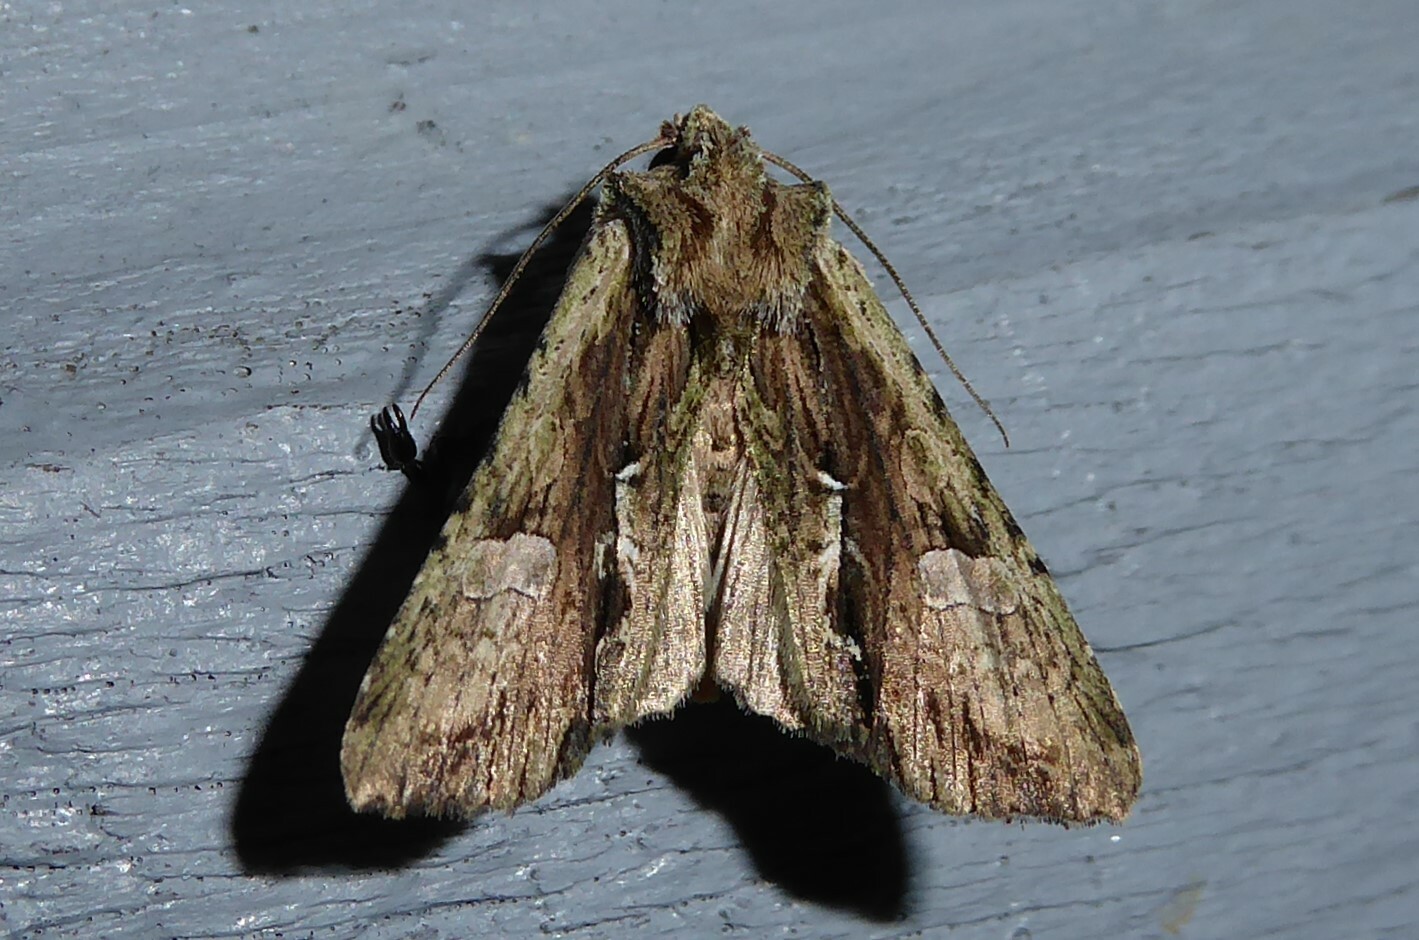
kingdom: Animalia
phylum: Arthropoda
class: Insecta
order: Lepidoptera
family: Noctuidae
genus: Meterana
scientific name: Meterana decorata
